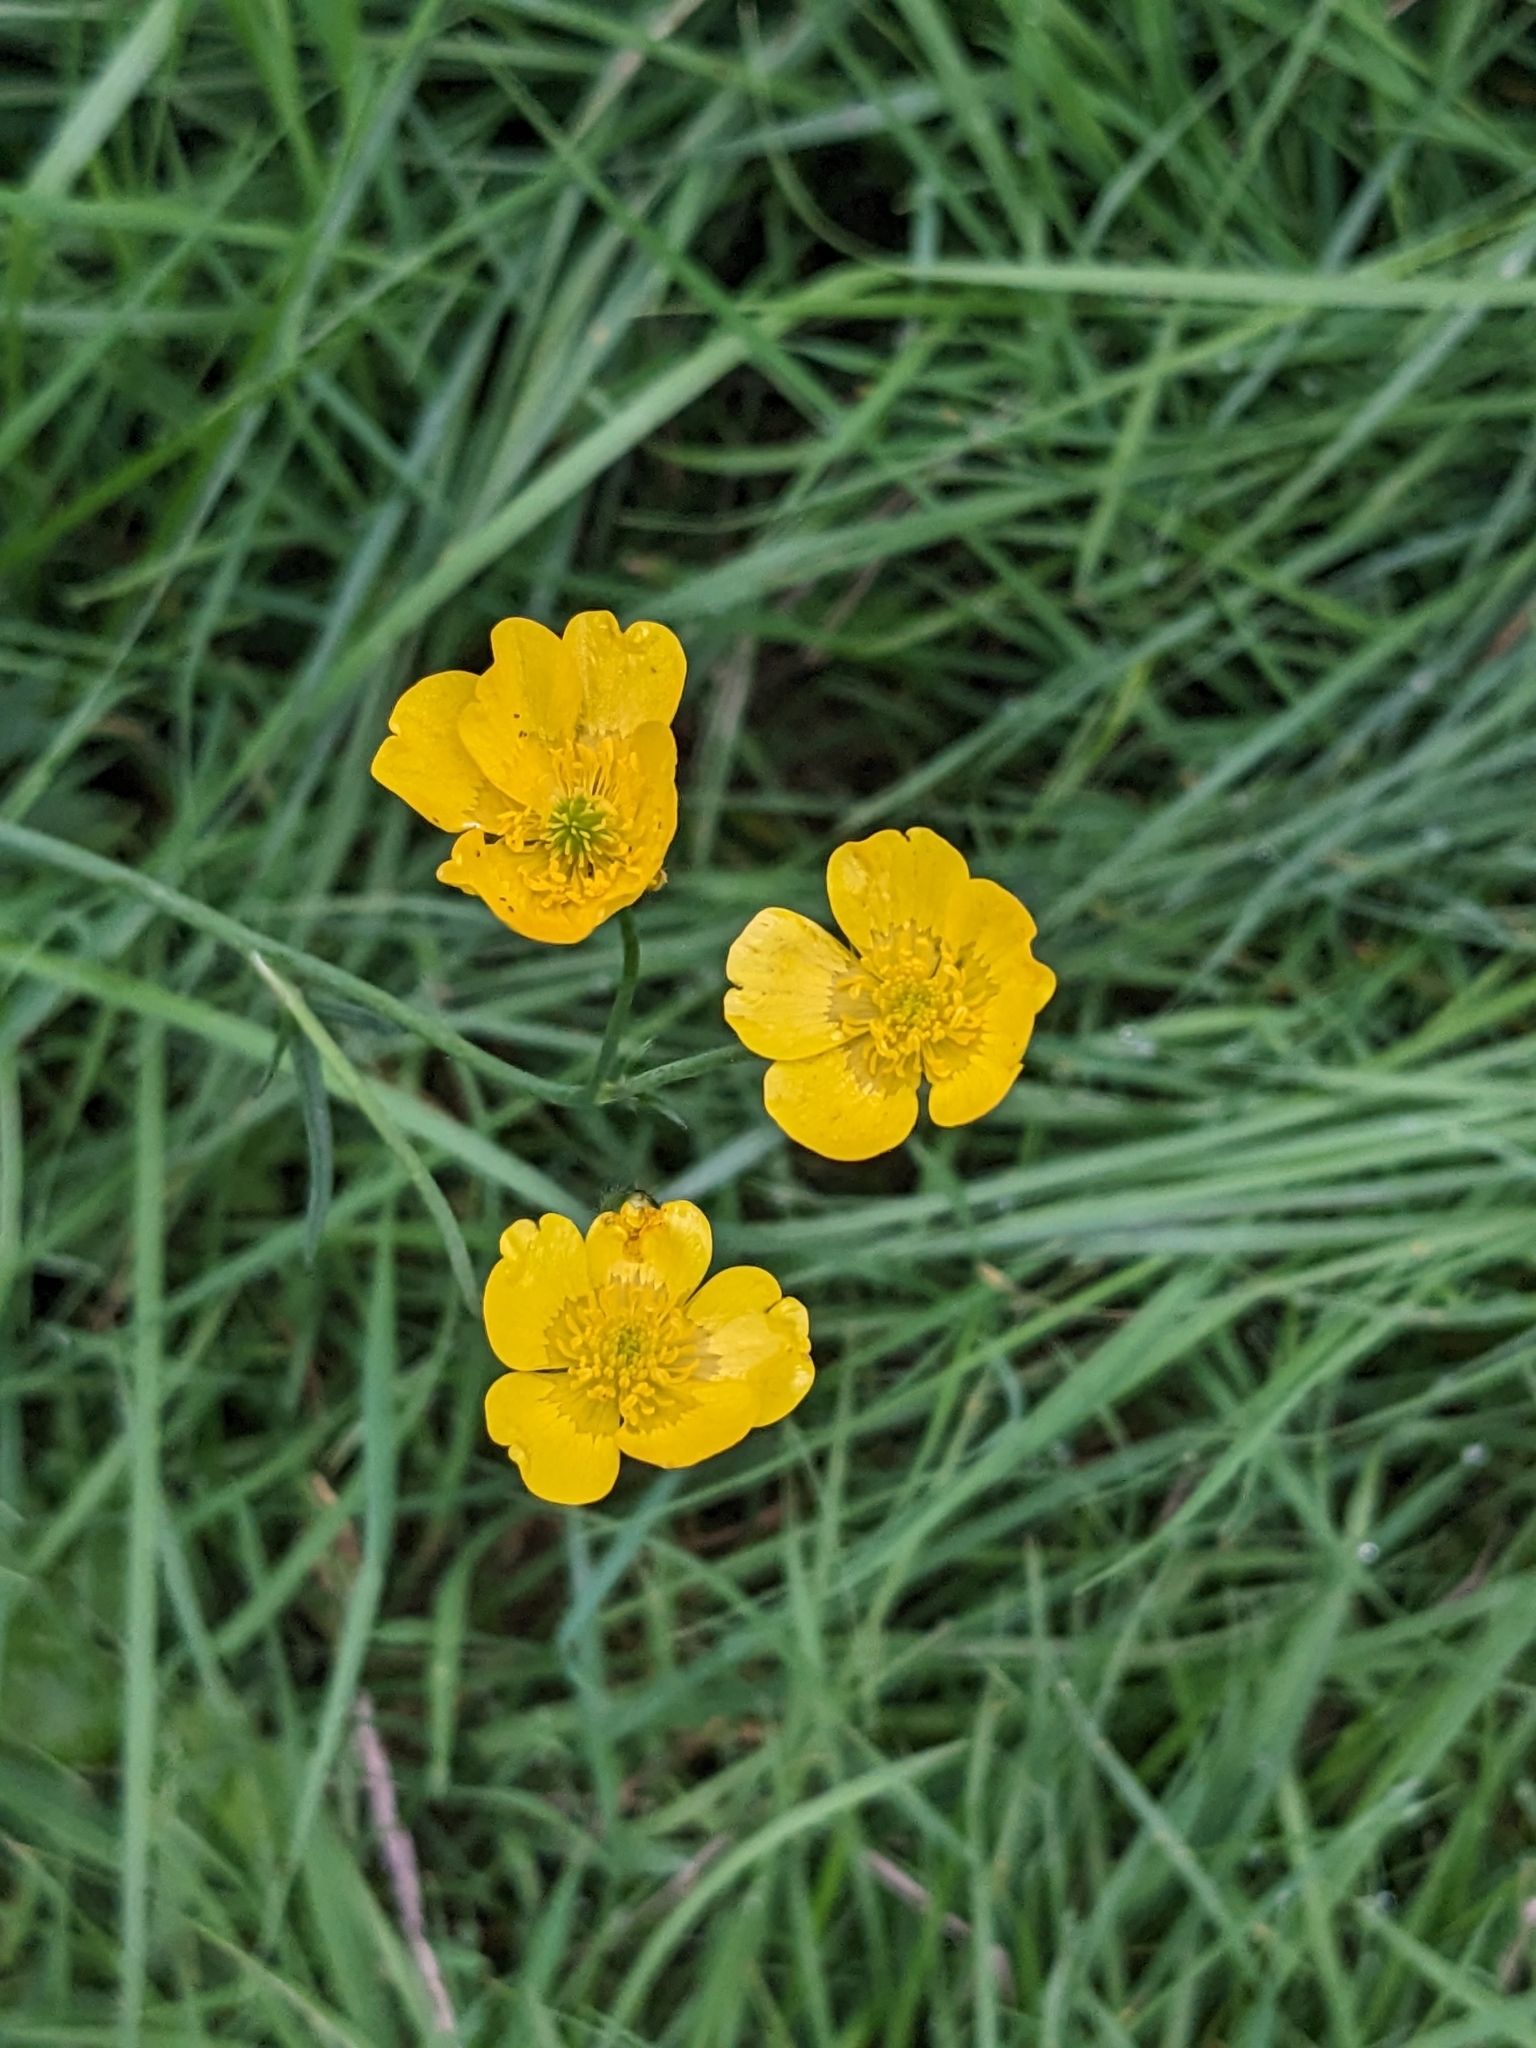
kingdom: Plantae
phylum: Tracheophyta
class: Magnoliopsida
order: Ranunculales
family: Ranunculaceae
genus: Ranunculus
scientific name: Ranunculus acris
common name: Meadow buttercup
